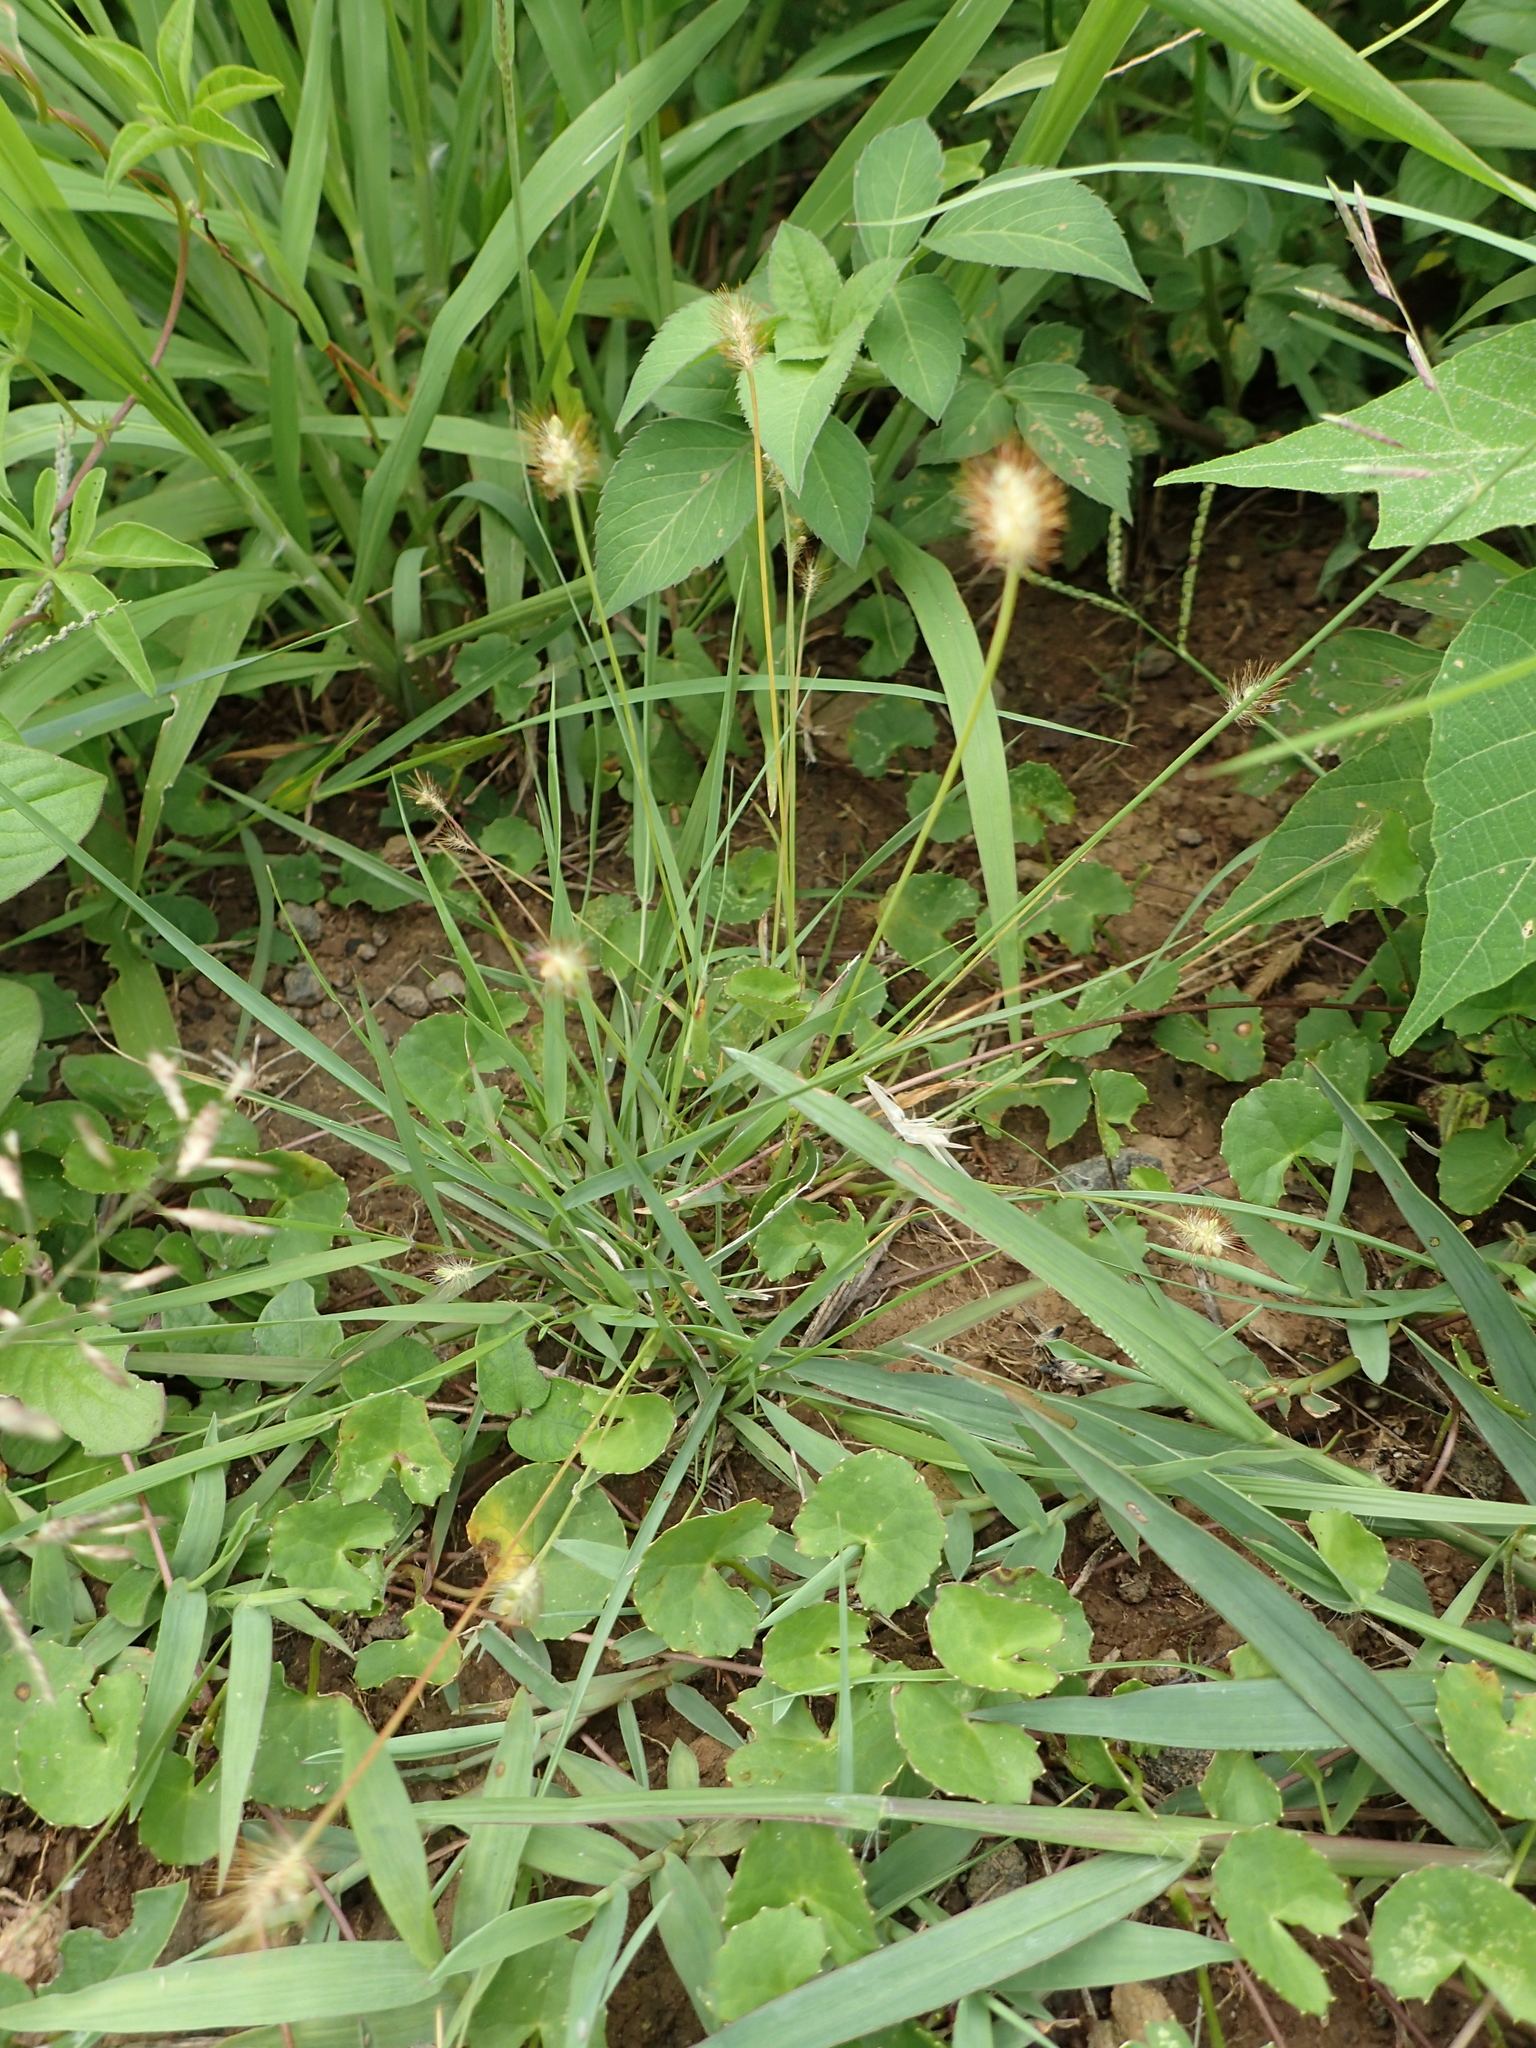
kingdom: Plantae
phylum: Tracheophyta
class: Liliopsida
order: Poales
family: Poaceae
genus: Setaria
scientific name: Setaria parviflora
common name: Knotroot bristle-grass
